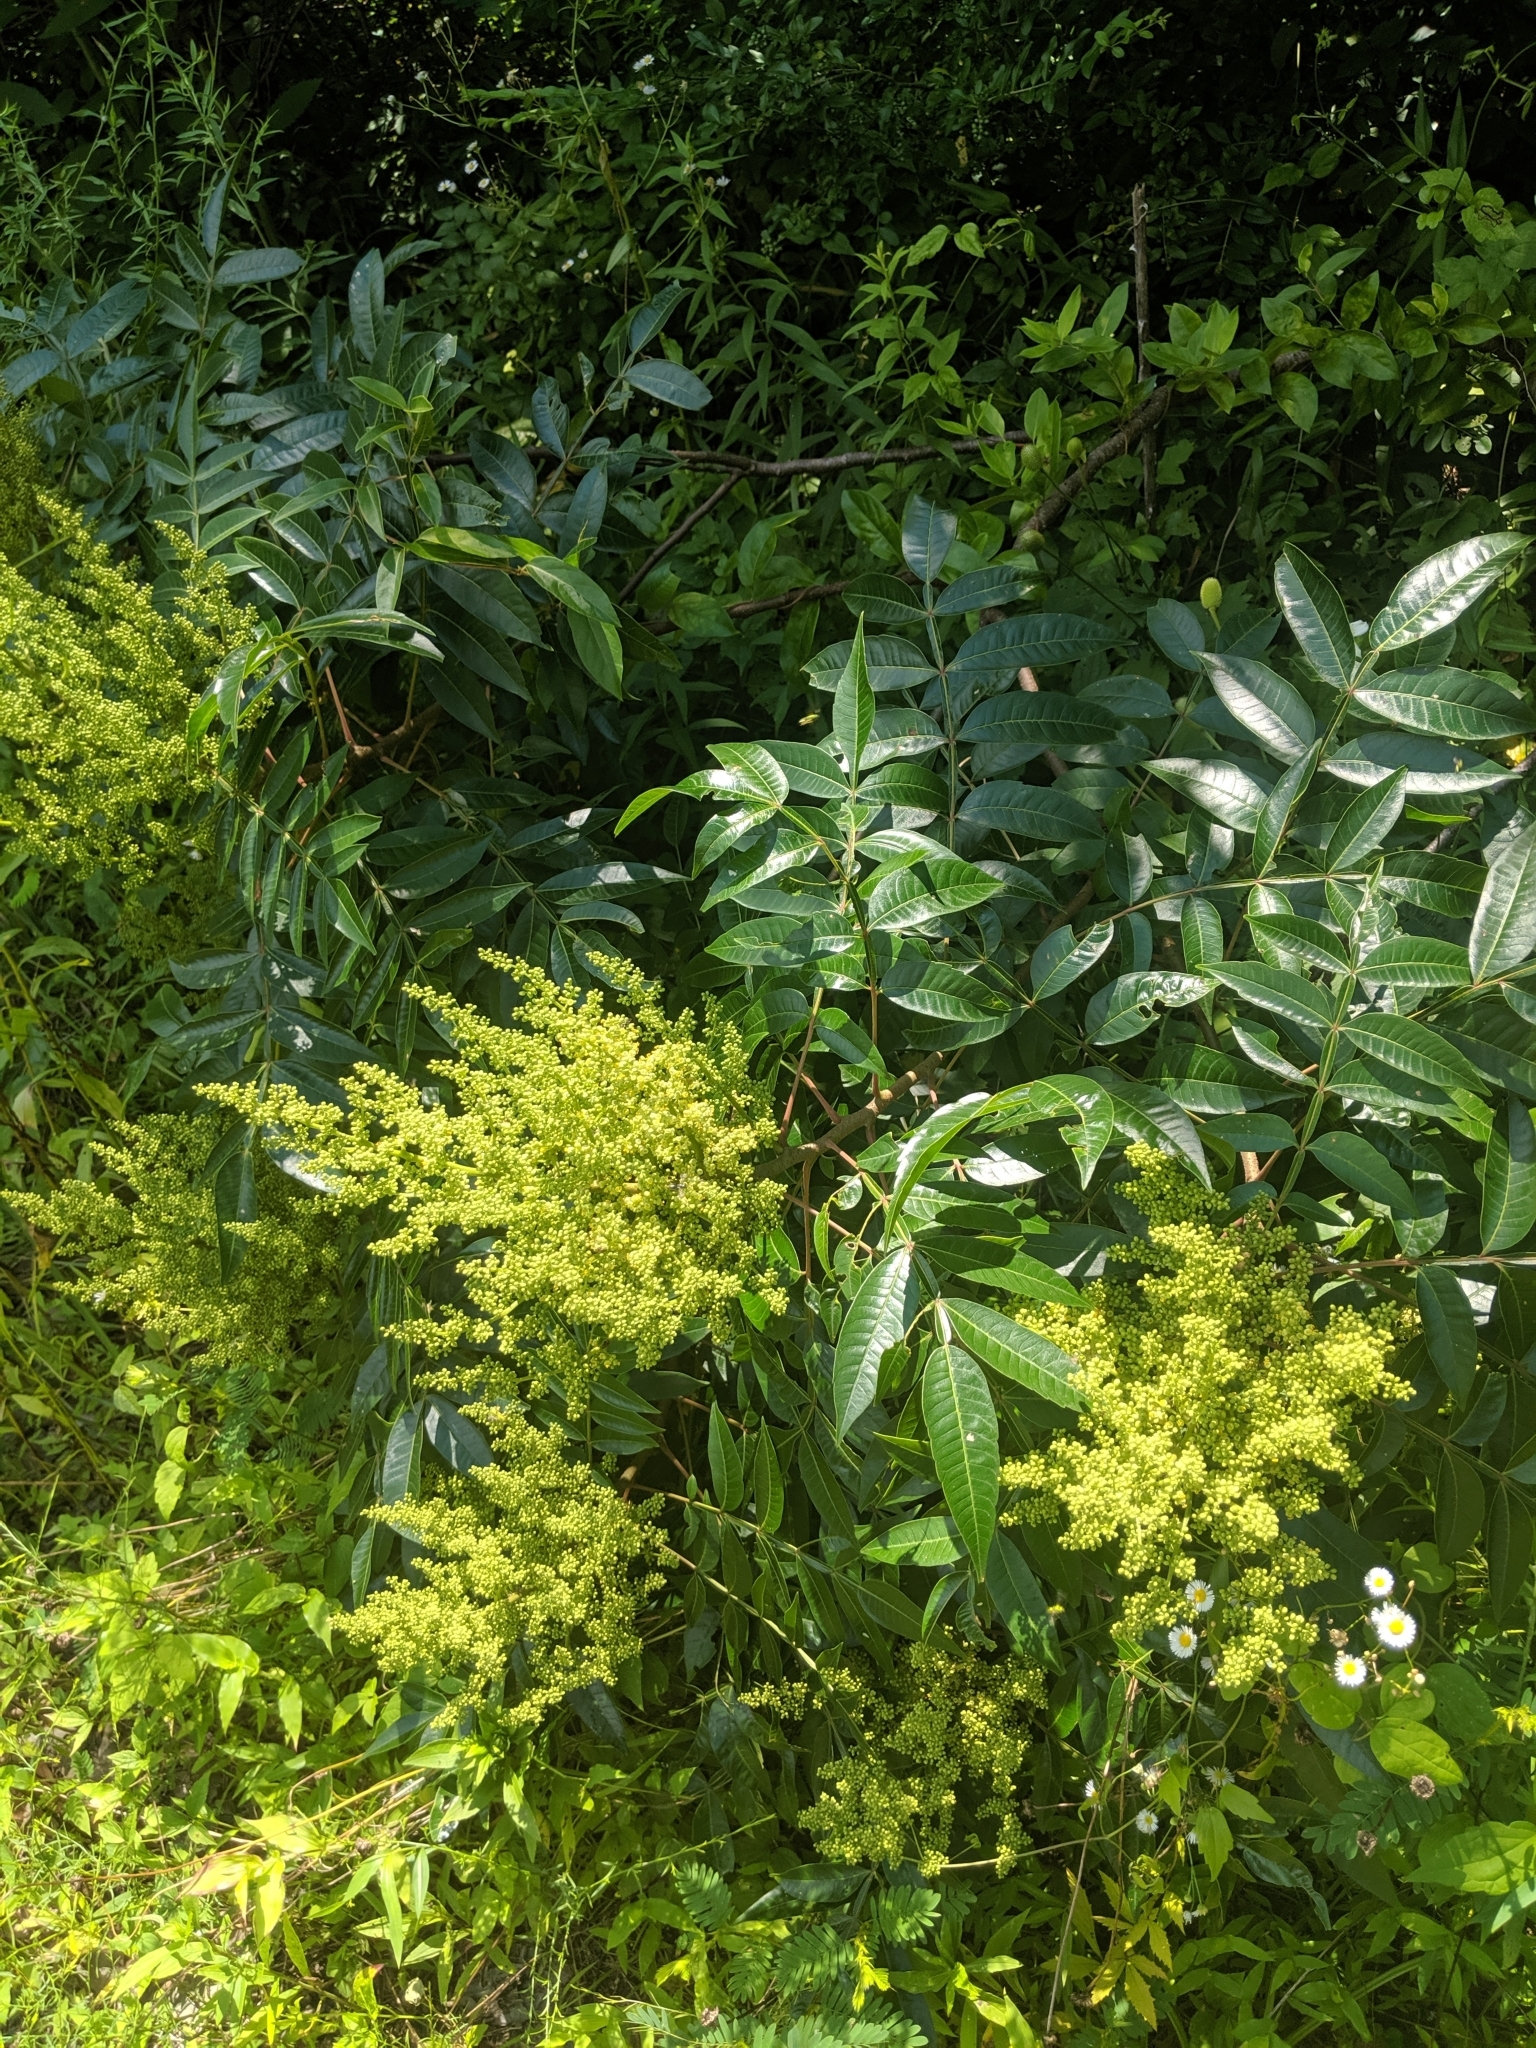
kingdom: Plantae
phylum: Tracheophyta
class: Magnoliopsida
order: Sapindales
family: Anacardiaceae
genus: Rhus
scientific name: Rhus copallina
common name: Shining sumac
